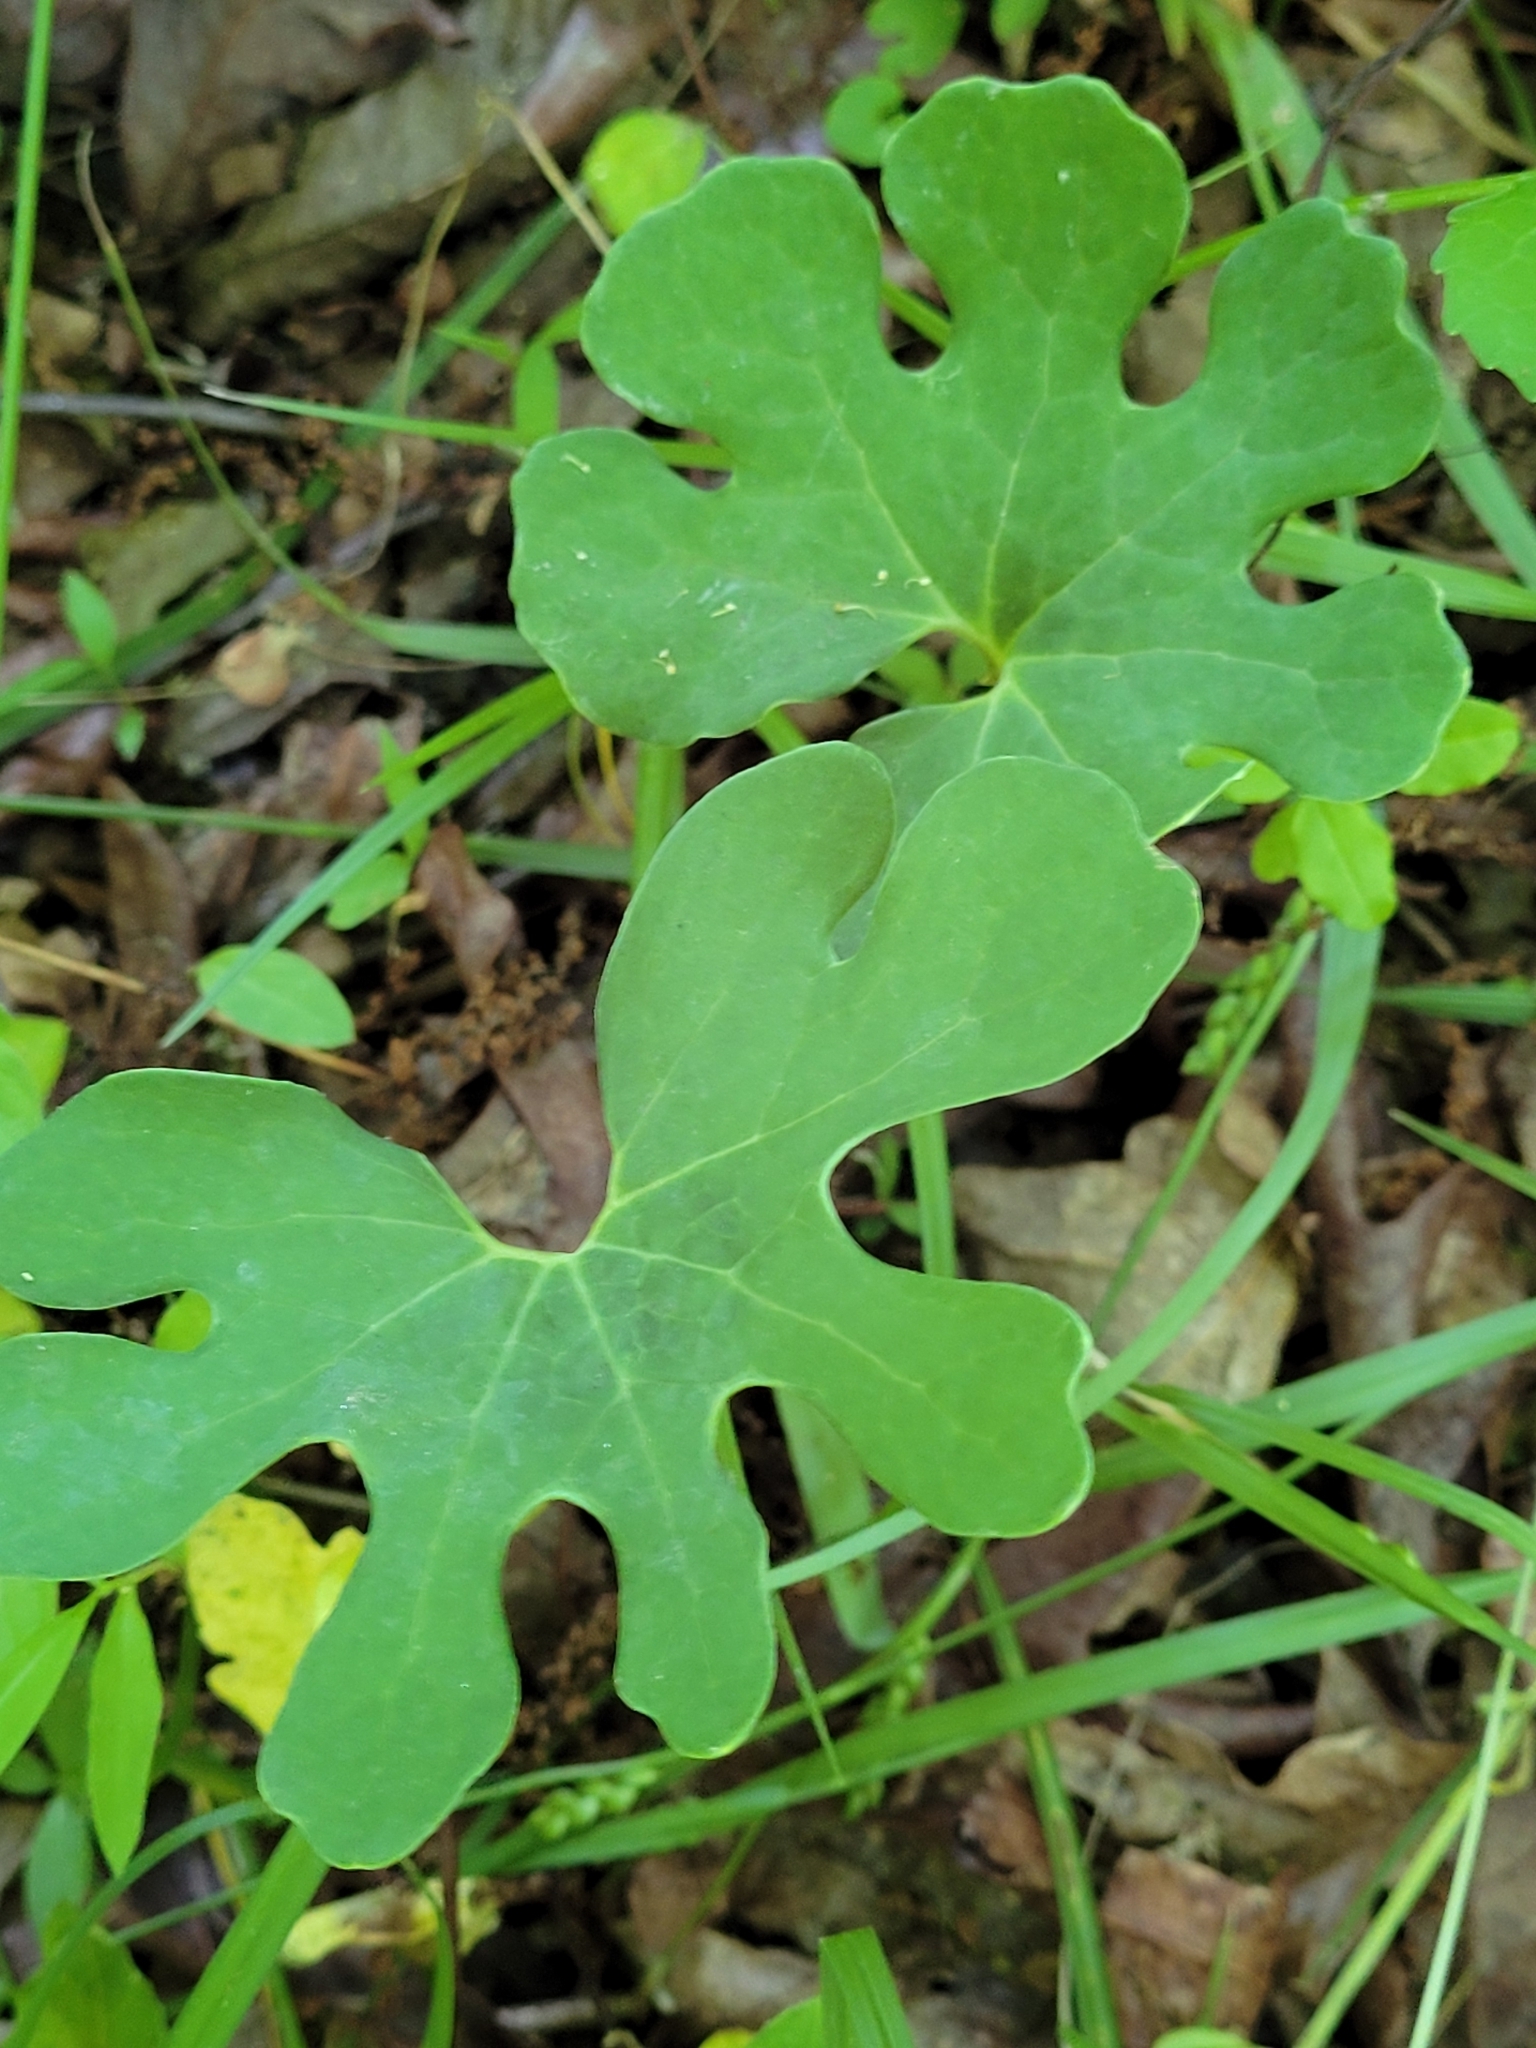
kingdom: Plantae
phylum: Tracheophyta
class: Magnoliopsida
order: Ranunculales
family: Papaveraceae
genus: Sanguinaria
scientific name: Sanguinaria canadensis
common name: Bloodroot
